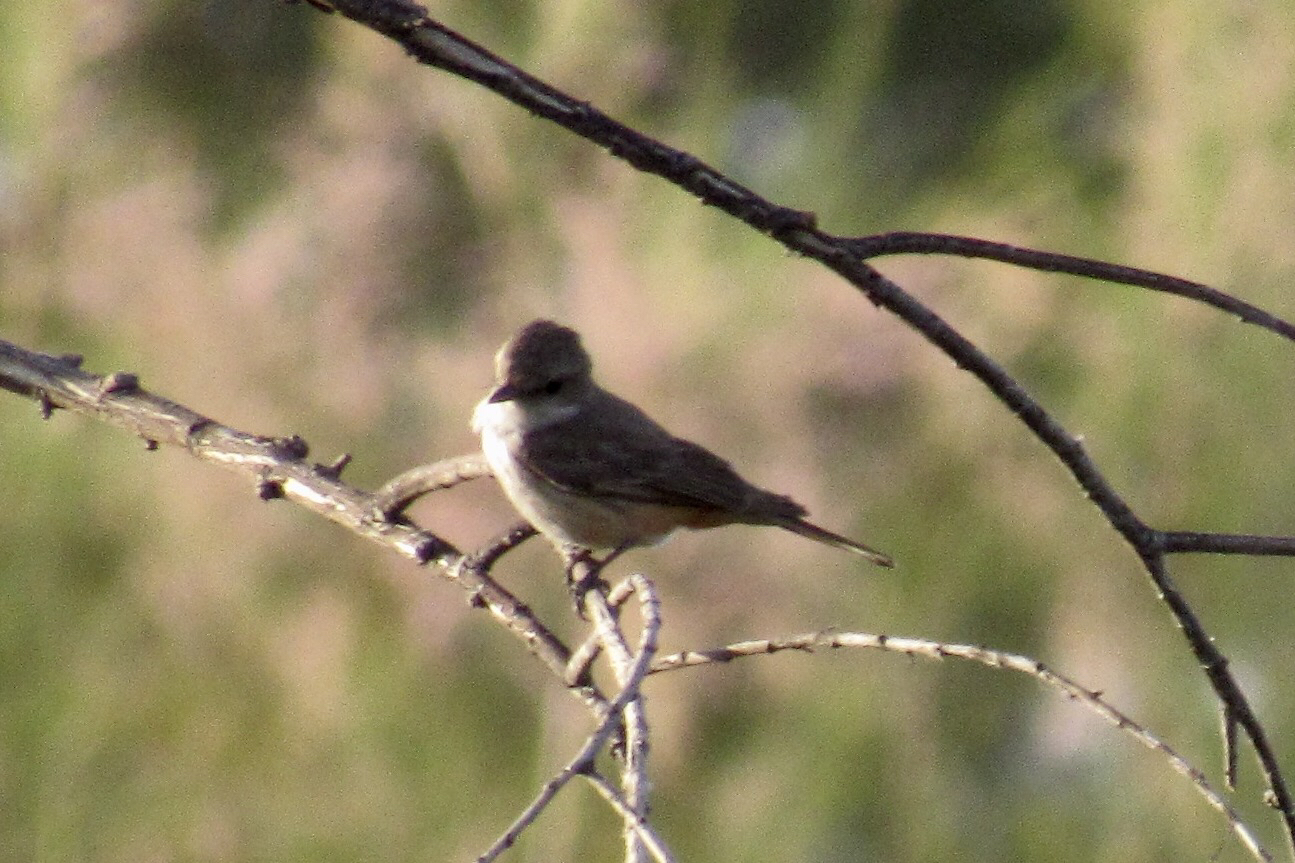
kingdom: Animalia
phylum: Chordata
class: Aves
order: Passeriformes
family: Tyrannidae
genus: Pyrocephalus
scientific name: Pyrocephalus rubinus
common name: Vermilion flycatcher
